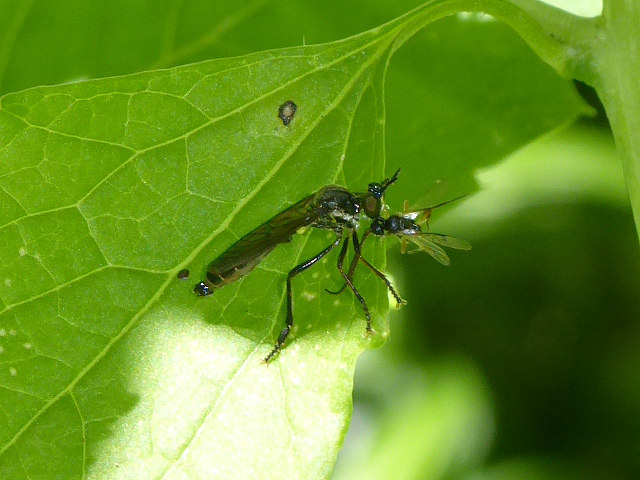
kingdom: Animalia
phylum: Arthropoda
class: Insecta
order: Diptera
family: Asilidae
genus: Dioctria
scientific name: Dioctria hyalipennis
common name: Stripe-legged robberfly
